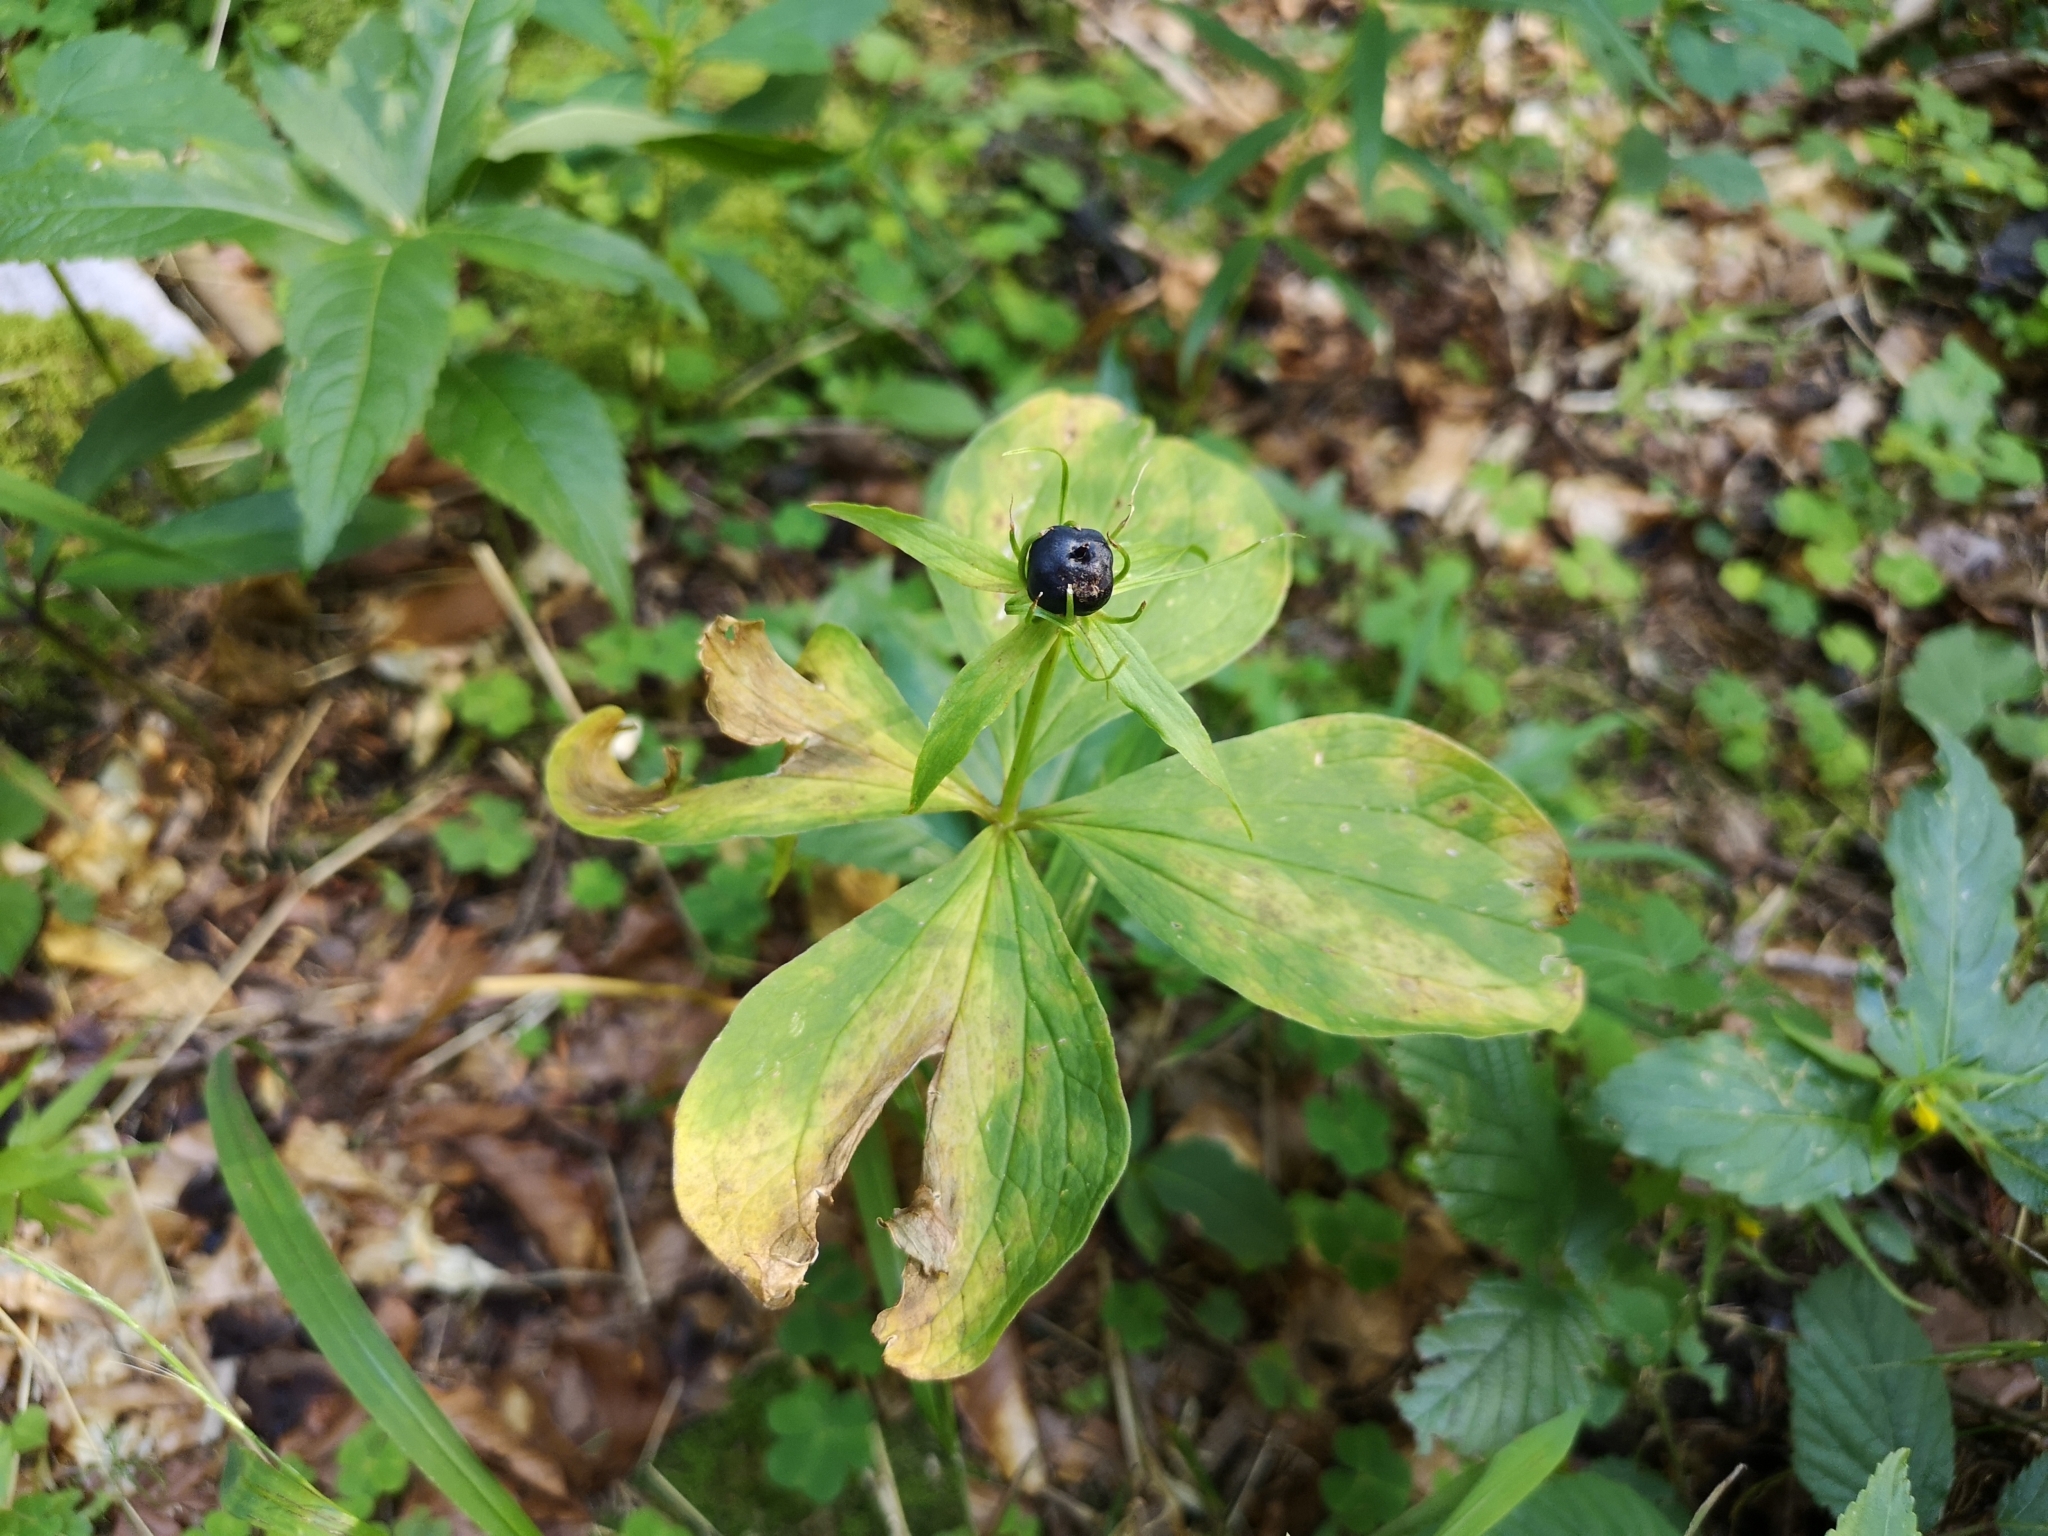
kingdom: Plantae
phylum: Tracheophyta
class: Liliopsida
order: Liliales
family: Melanthiaceae
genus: Paris
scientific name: Paris quadrifolia
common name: Herb-paris
